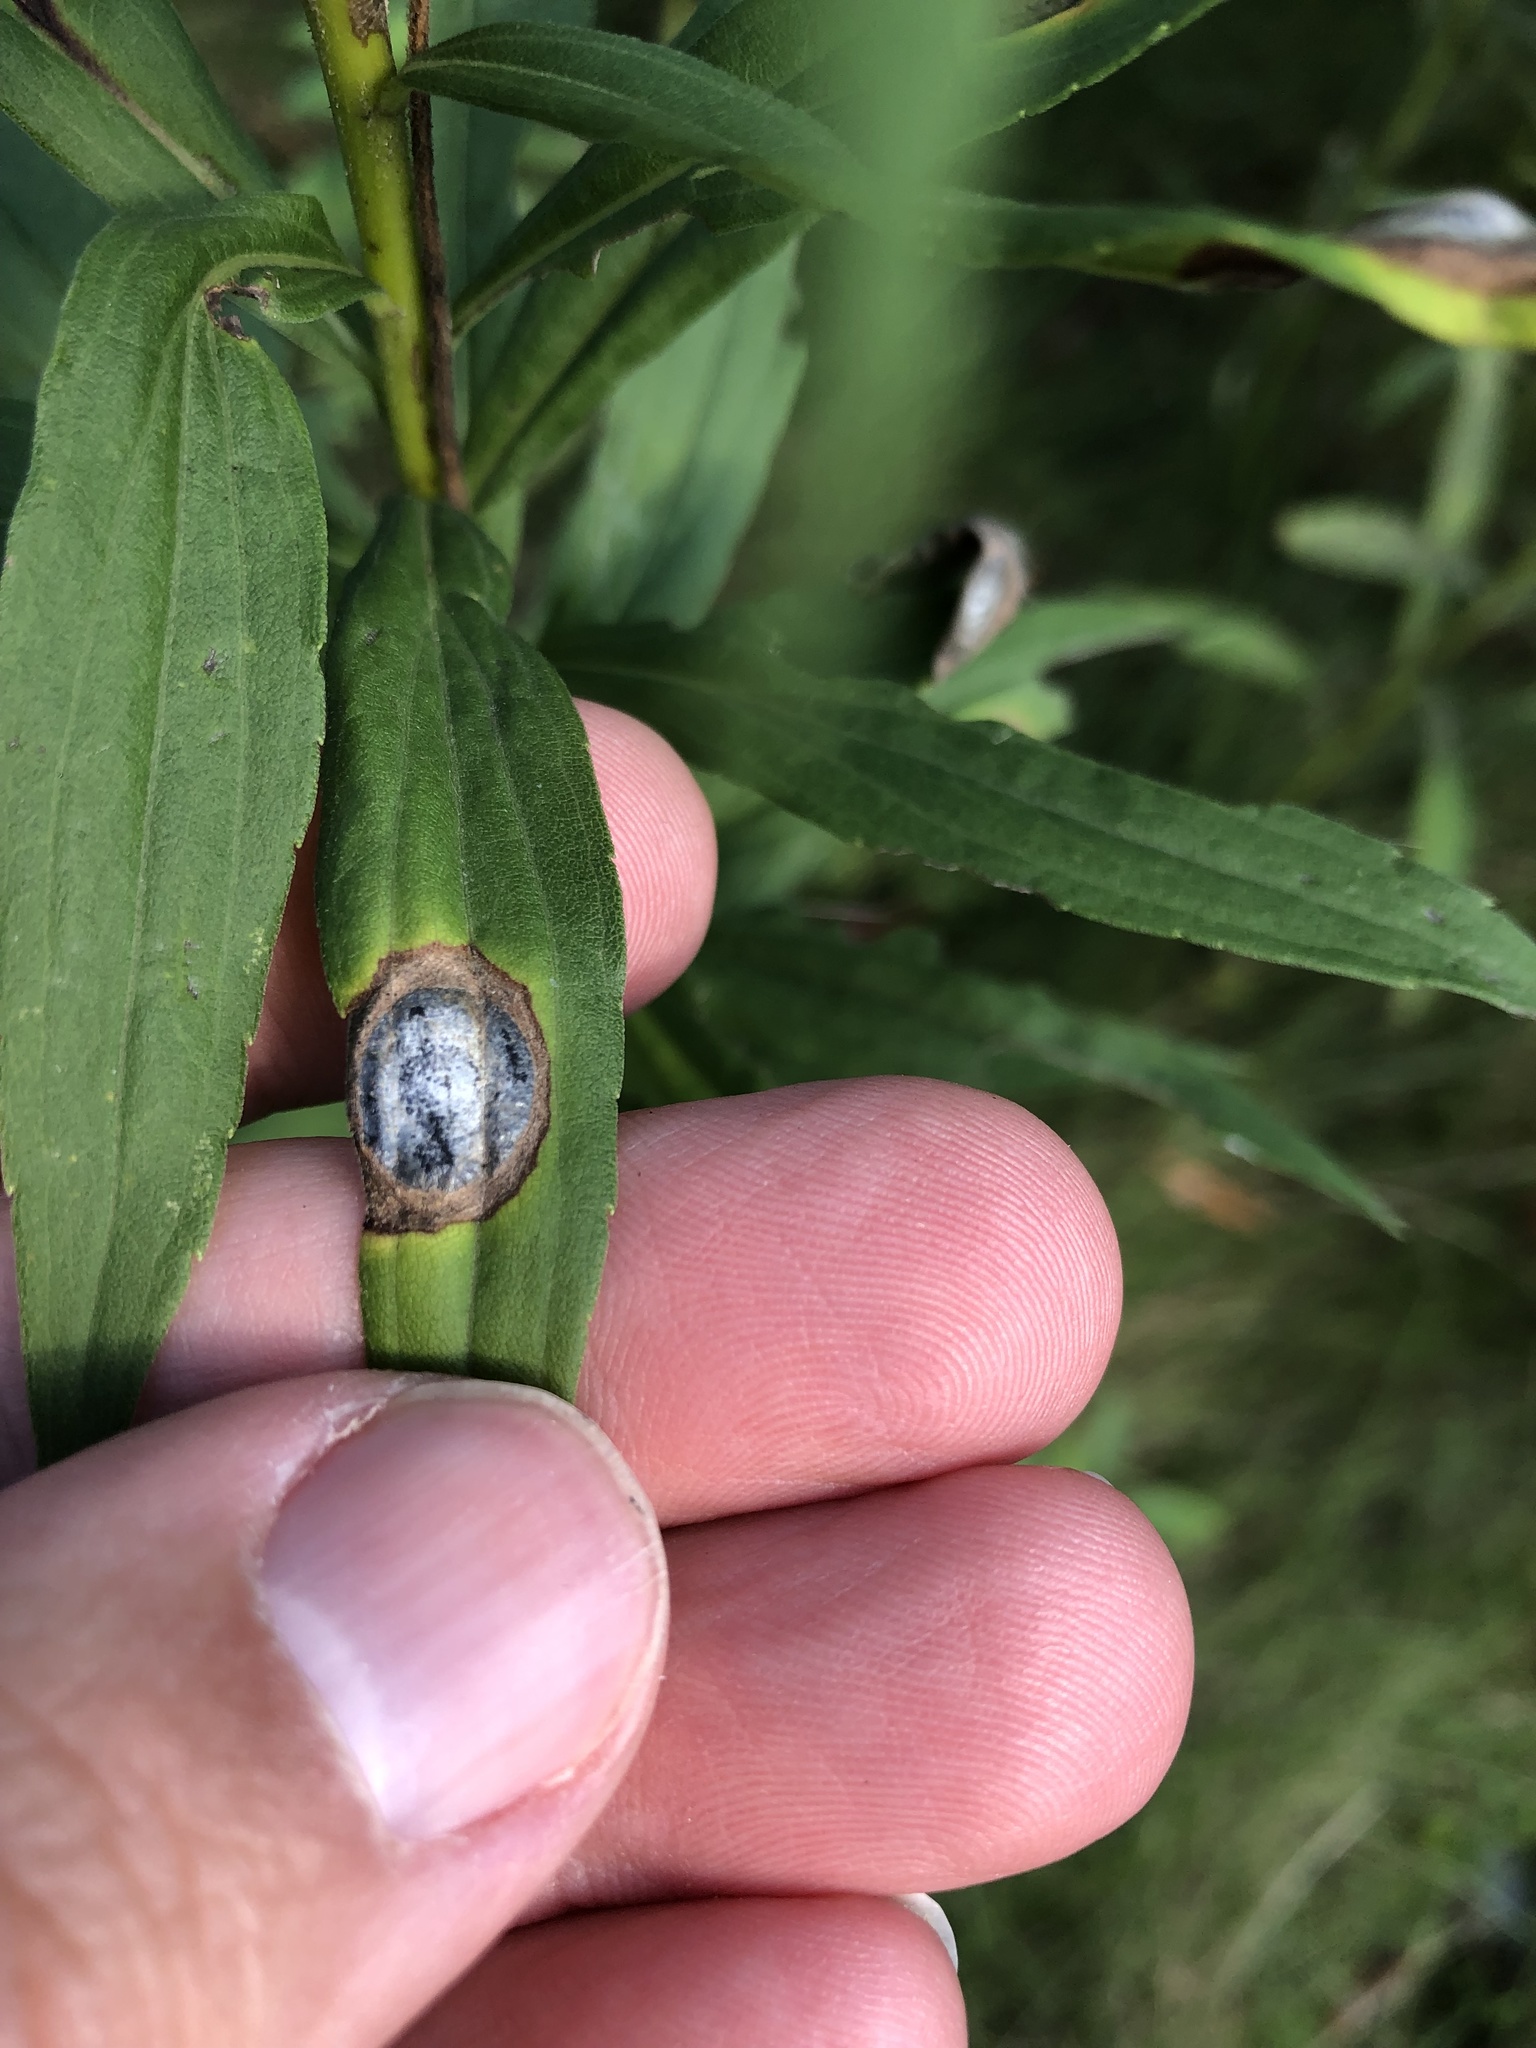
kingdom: Animalia
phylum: Arthropoda
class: Insecta
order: Diptera
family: Cecidomyiidae
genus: Asteromyia
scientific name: Asteromyia carbonifera
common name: Carbonifera goldenrod gall midge
